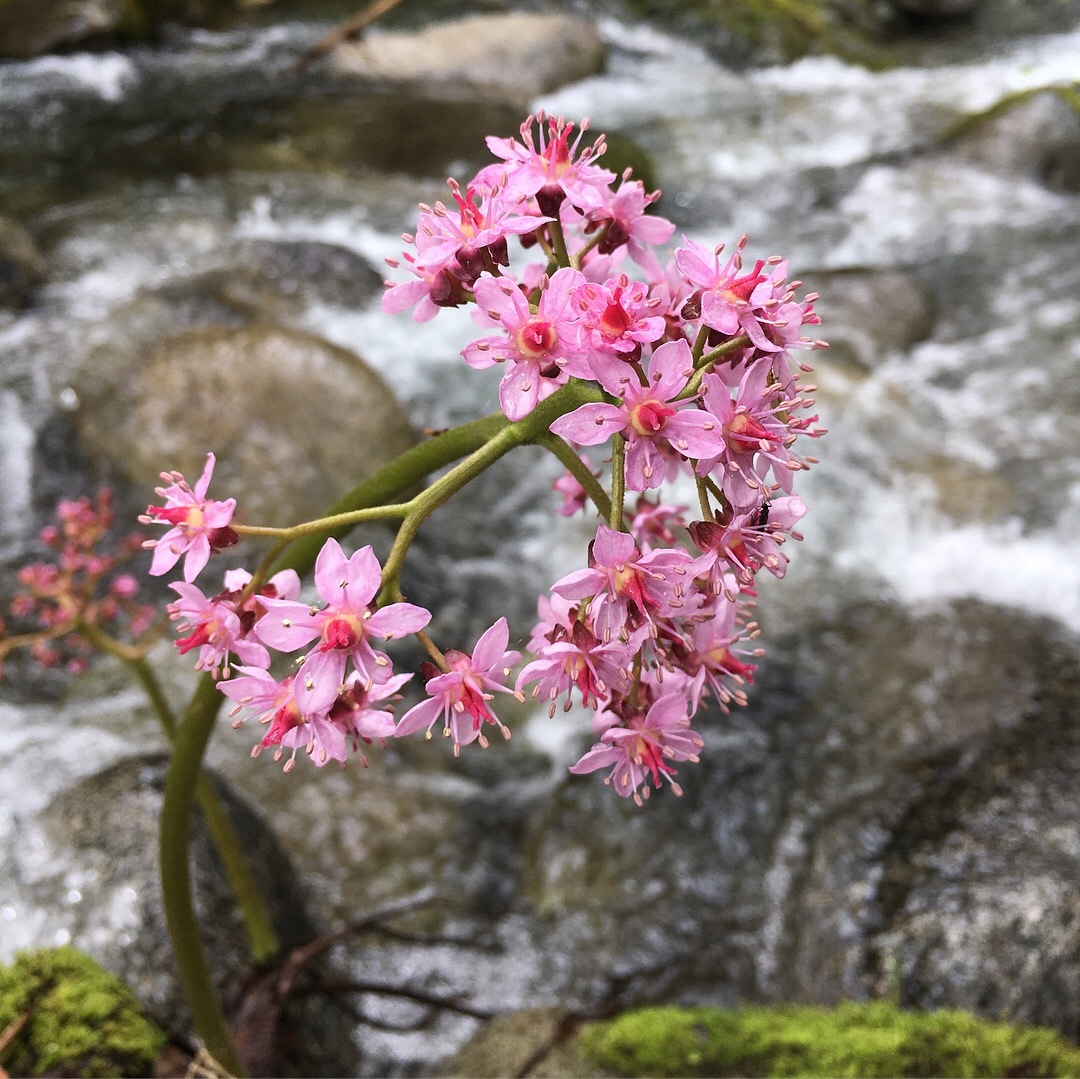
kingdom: Plantae
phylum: Tracheophyta
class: Magnoliopsida
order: Saxifragales
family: Saxifragaceae
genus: Darmera
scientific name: Darmera peltata
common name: Indian-rhubarb
